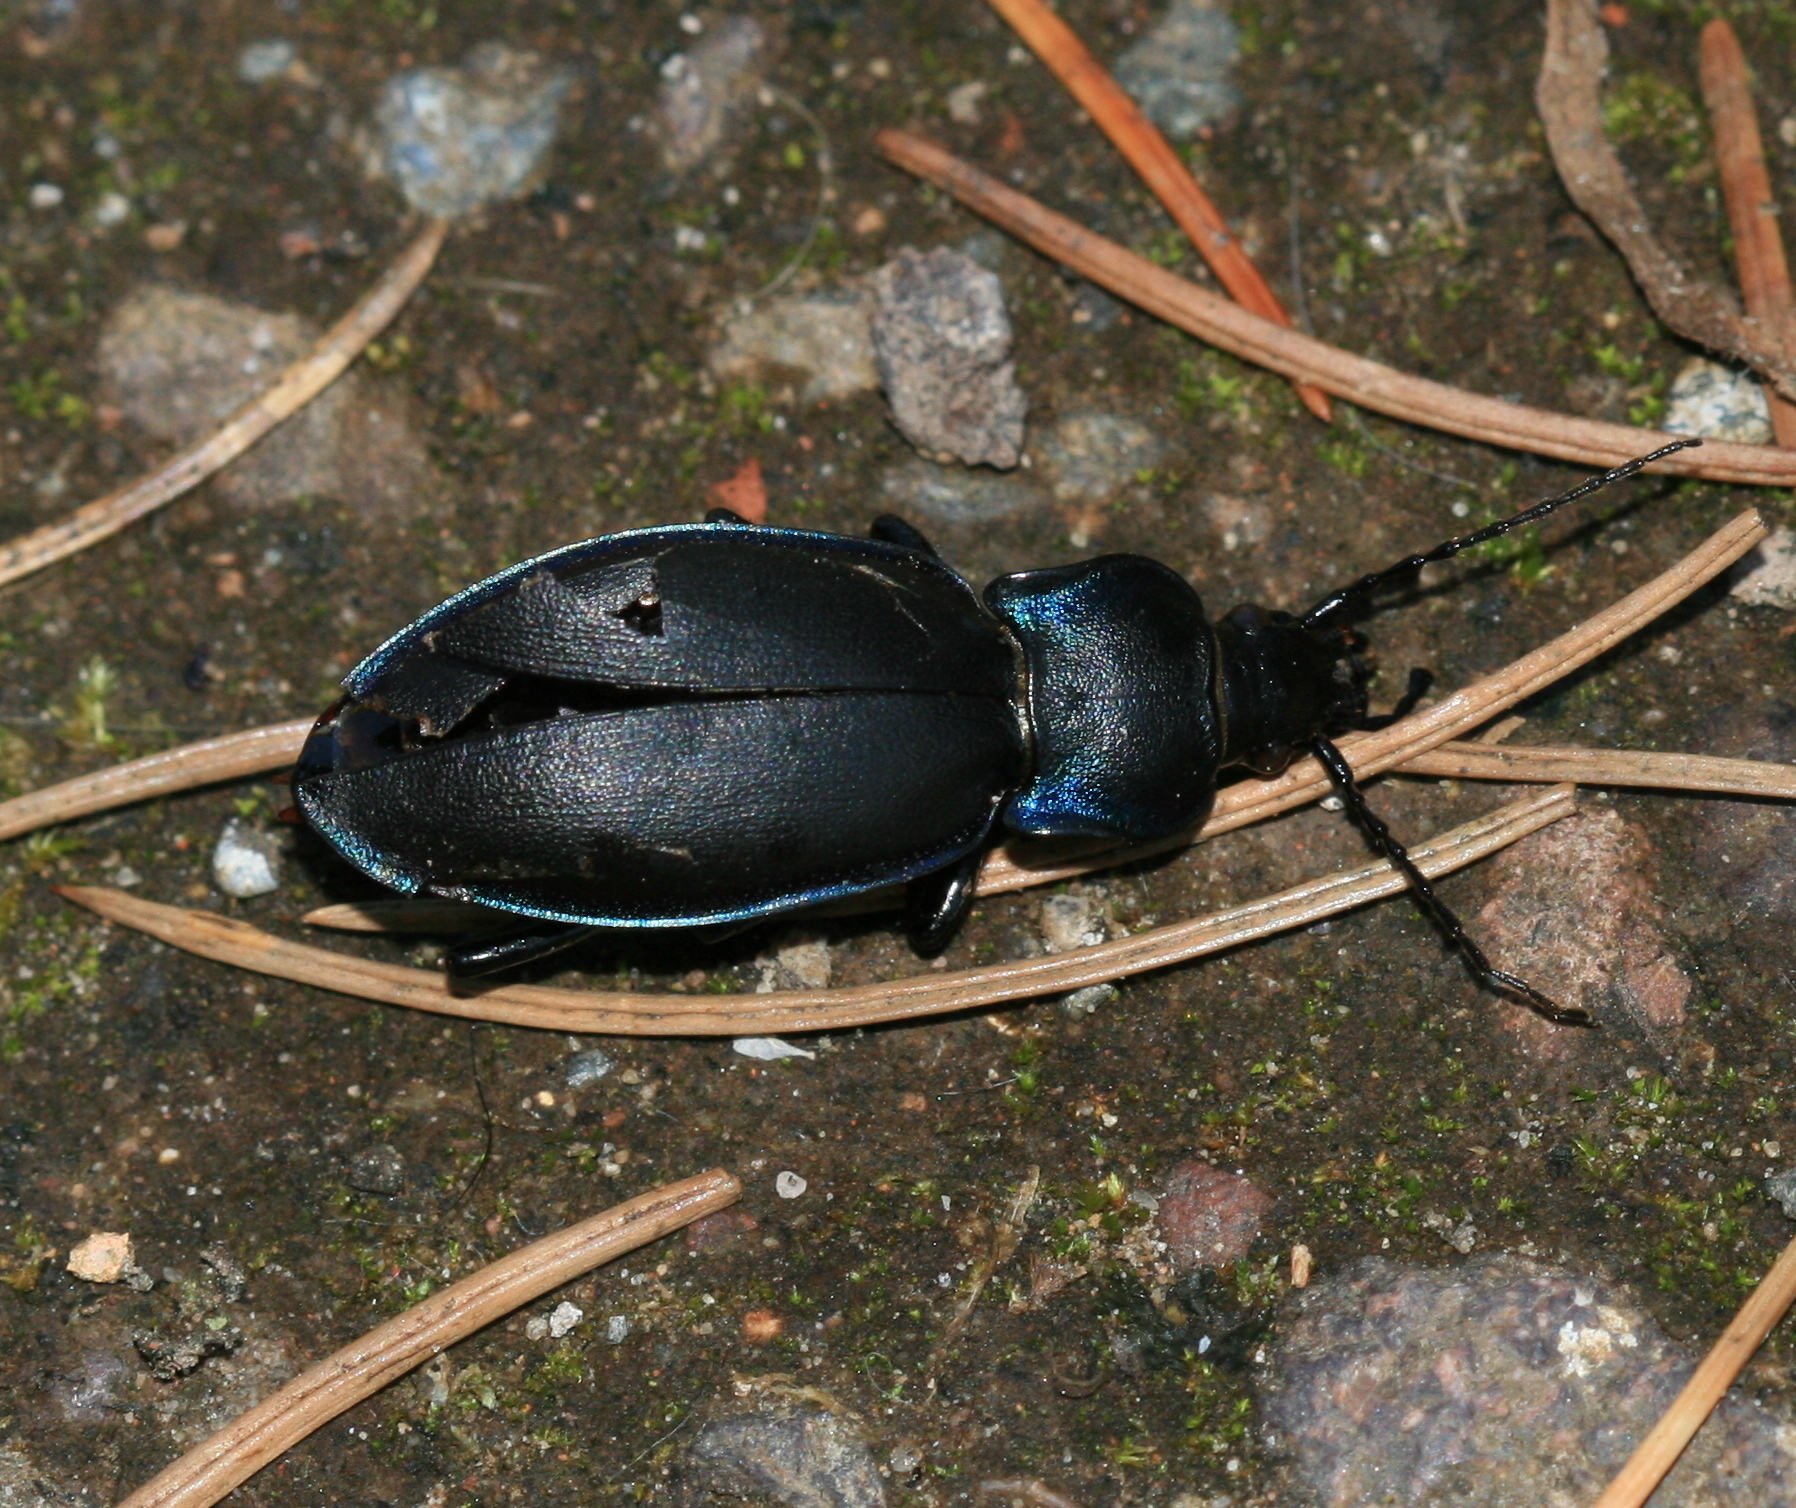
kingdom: Animalia
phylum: Arthropoda
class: Insecta
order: Coleoptera
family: Carabidae
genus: Carabus
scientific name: Carabus violaceus
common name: Violet ground beetle
